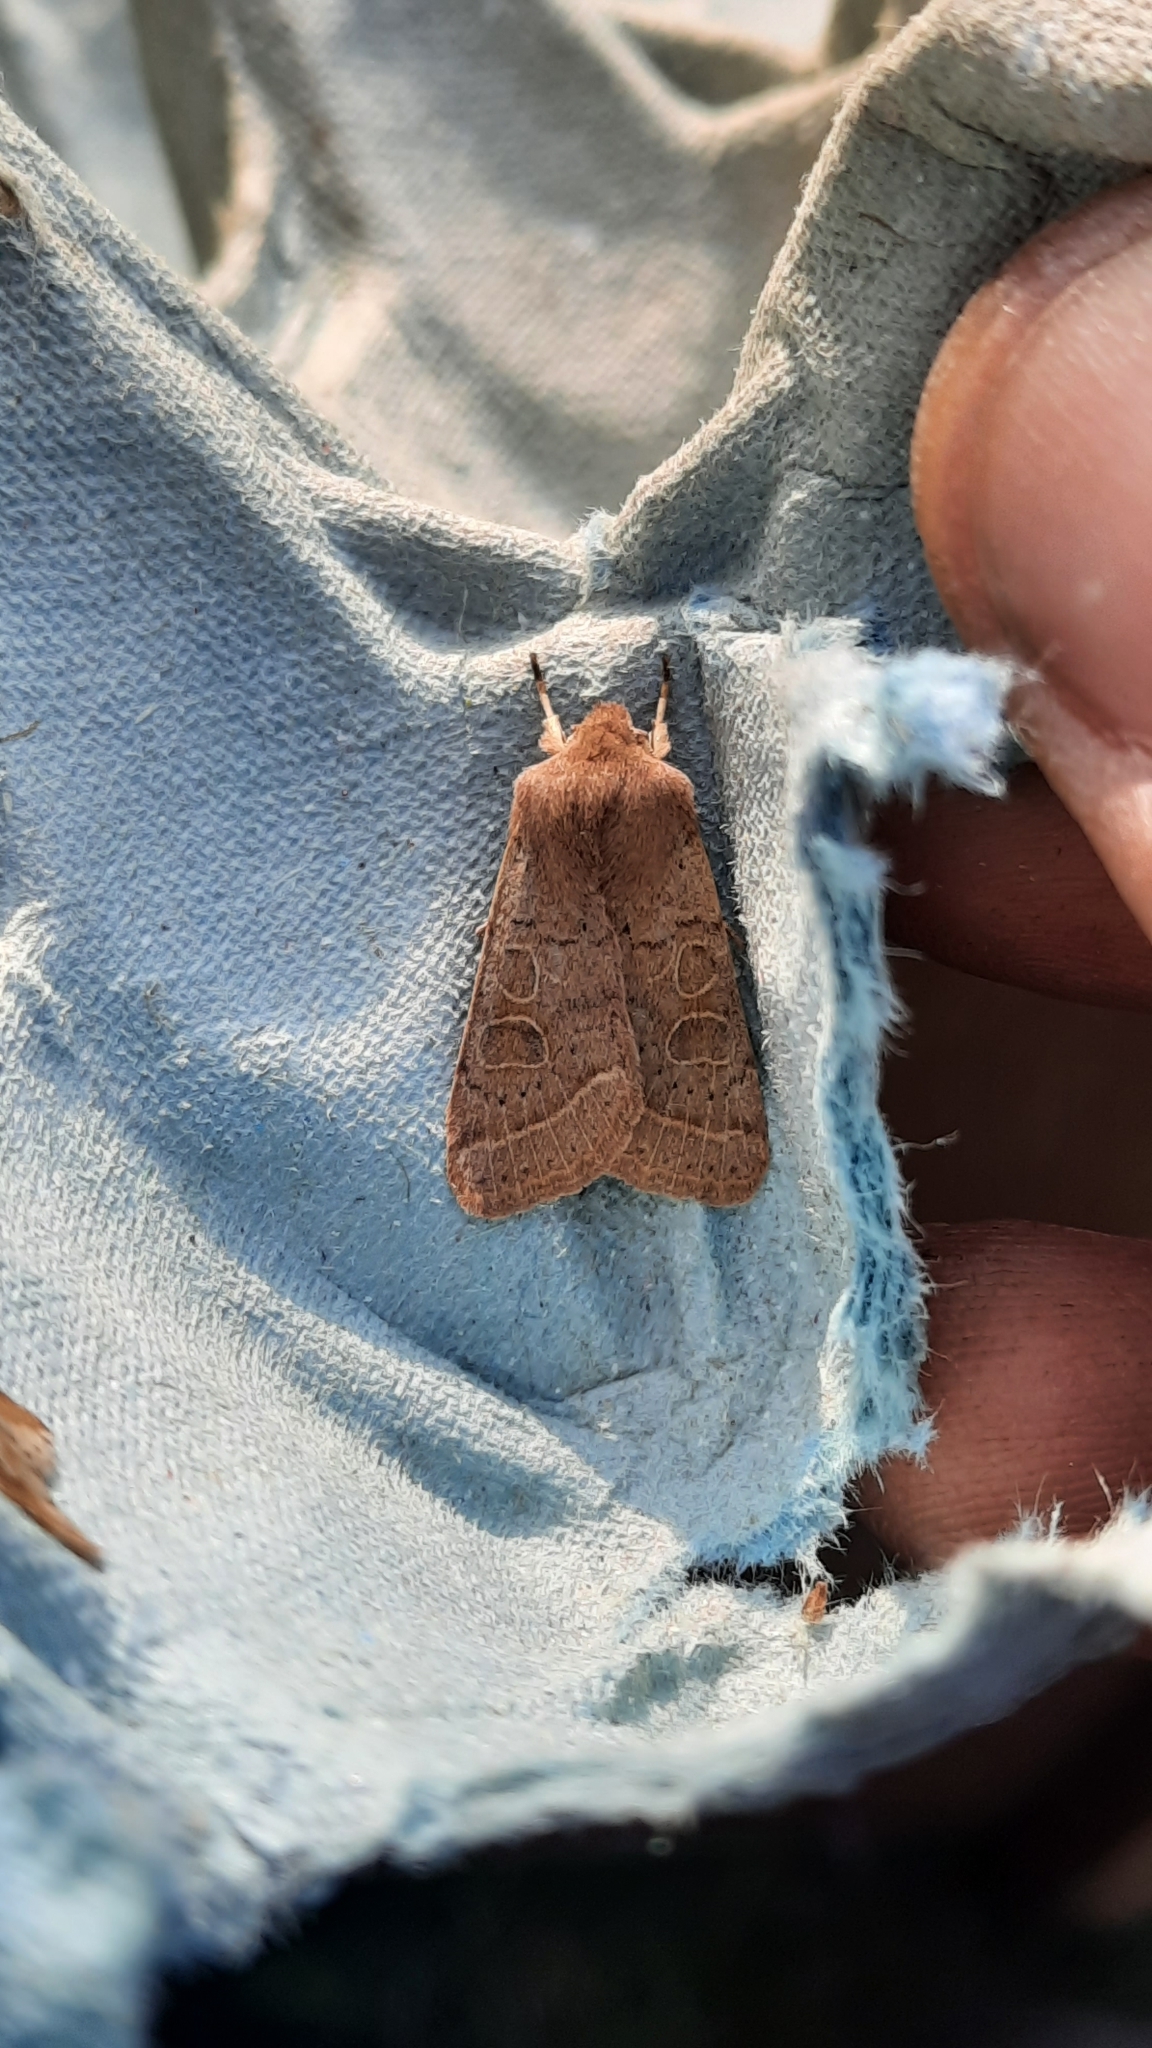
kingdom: Animalia
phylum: Arthropoda
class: Insecta
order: Lepidoptera
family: Noctuidae
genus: Orthosia
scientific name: Orthosia cerasi
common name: Common quaker
